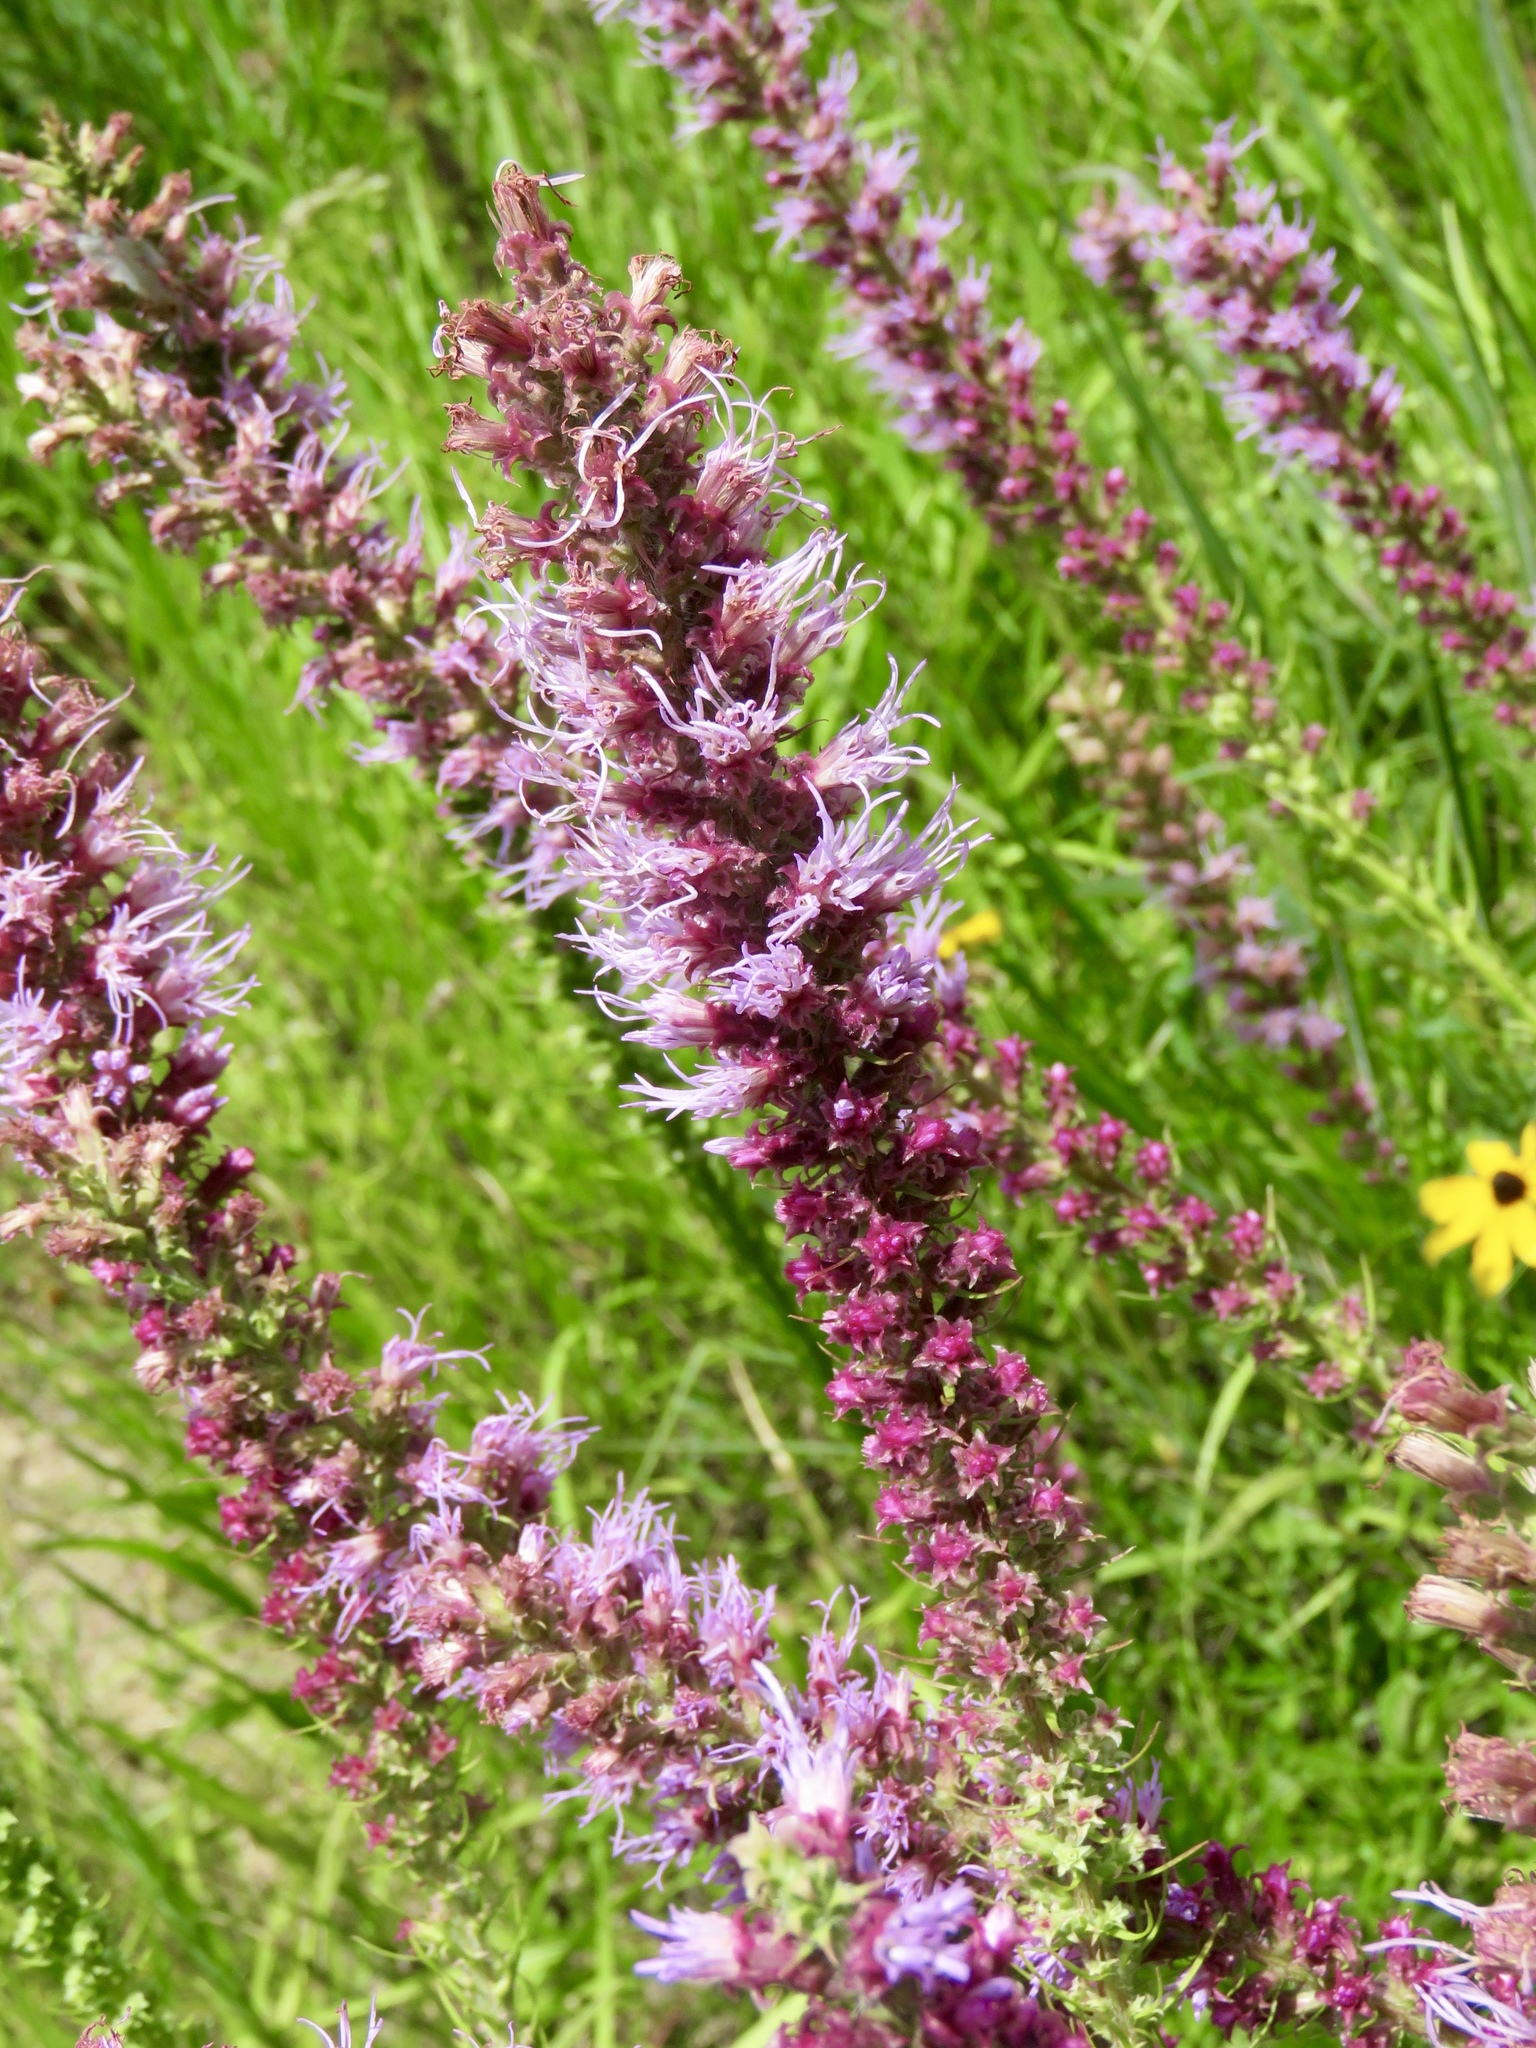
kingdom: Plantae
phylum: Tracheophyta
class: Magnoliopsida
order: Asterales
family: Asteraceae
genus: Liatris
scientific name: Liatris pycnostachya
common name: Cattail gayfeather
